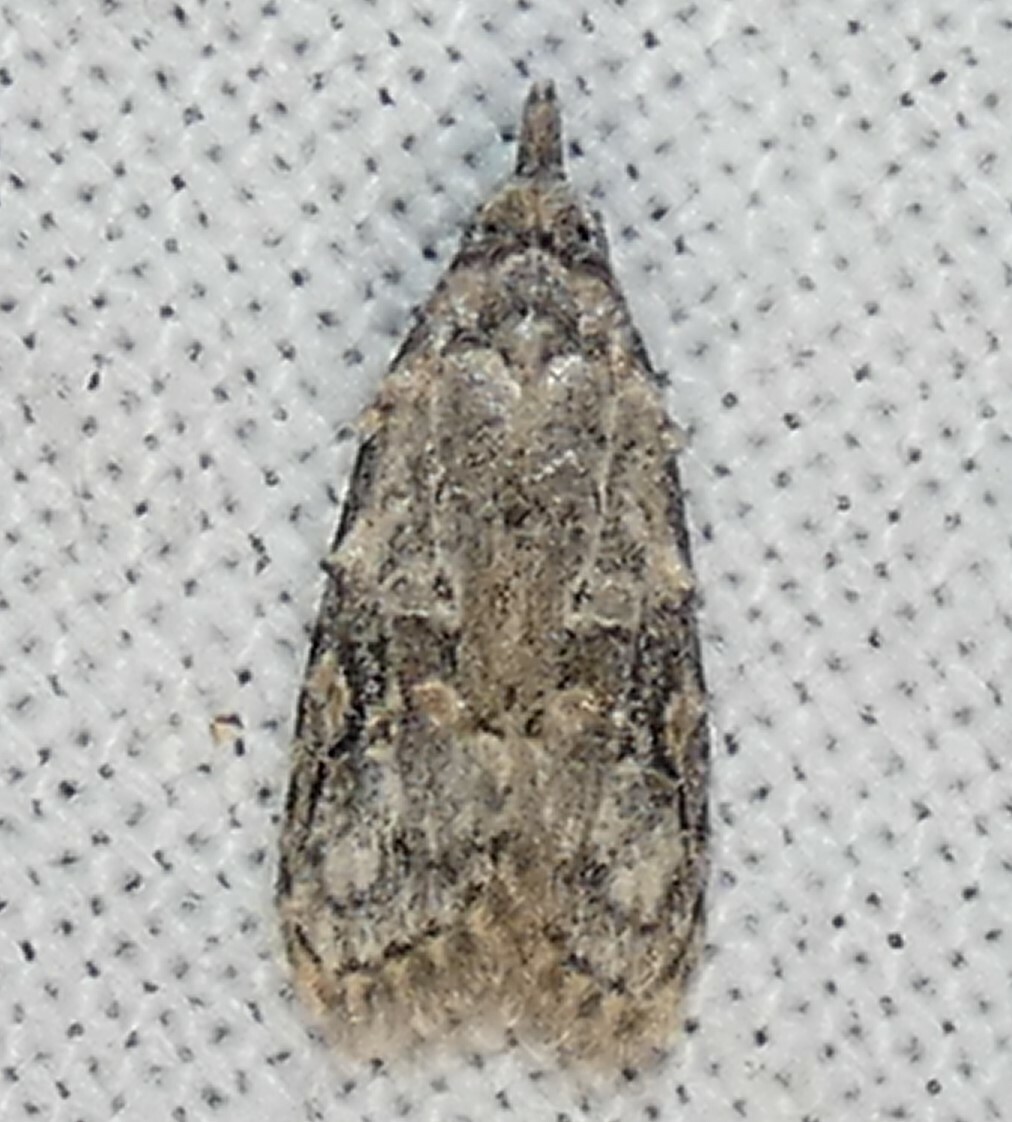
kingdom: Animalia
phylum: Arthropoda
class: Insecta
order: Lepidoptera
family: Carposinidae
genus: Carposina
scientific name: Carposina ottawana
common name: American peach fruit moth
